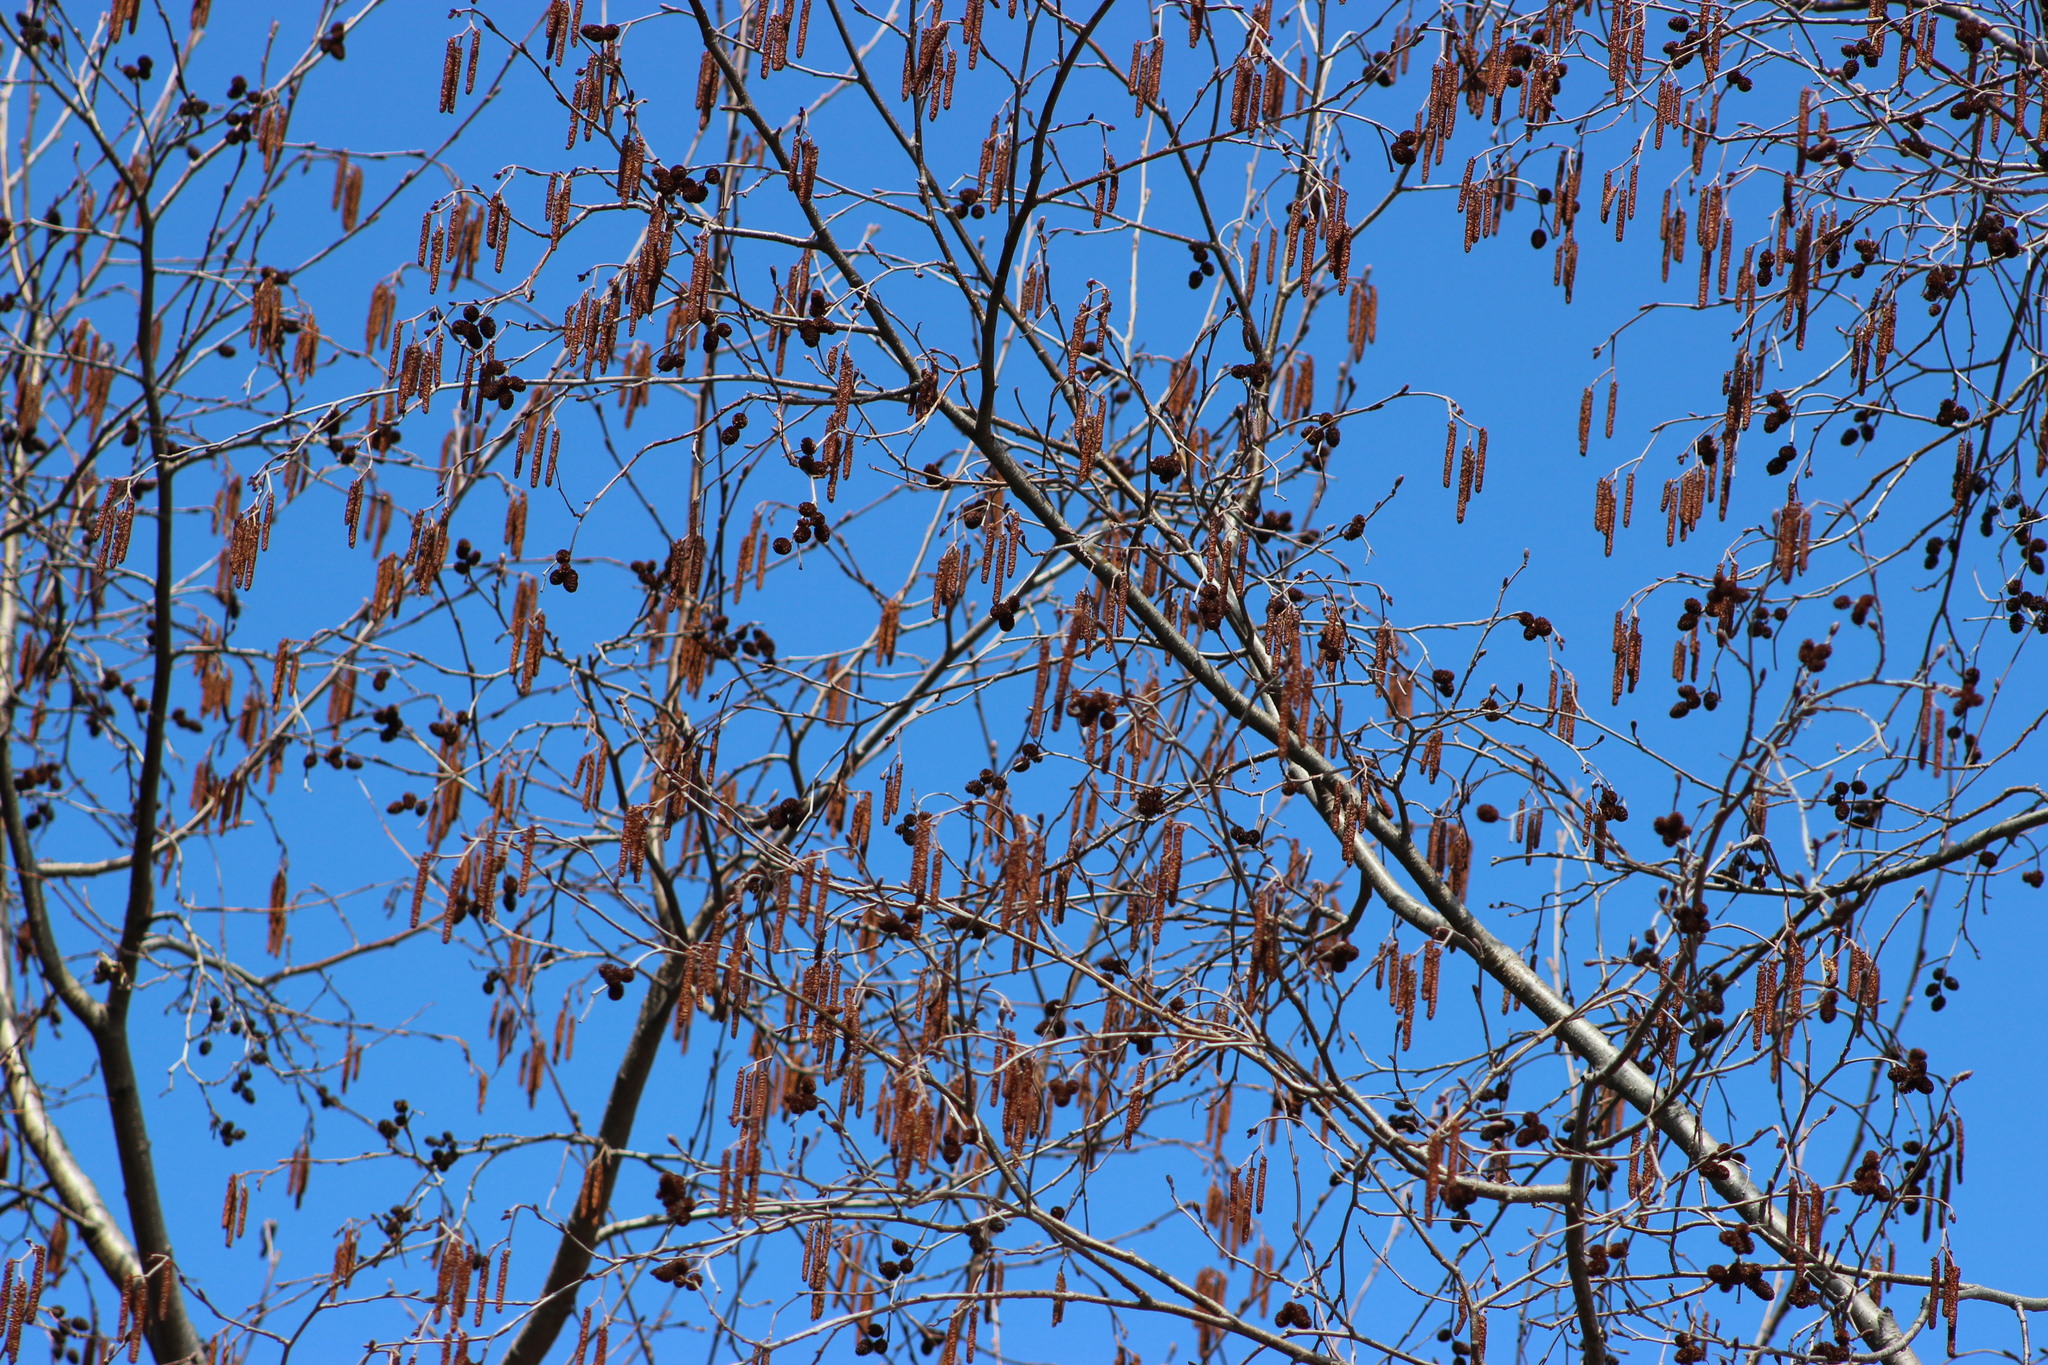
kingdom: Plantae
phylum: Tracheophyta
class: Magnoliopsida
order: Fagales
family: Betulaceae
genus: Alnus
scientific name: Alnus incana
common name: Grey alder
